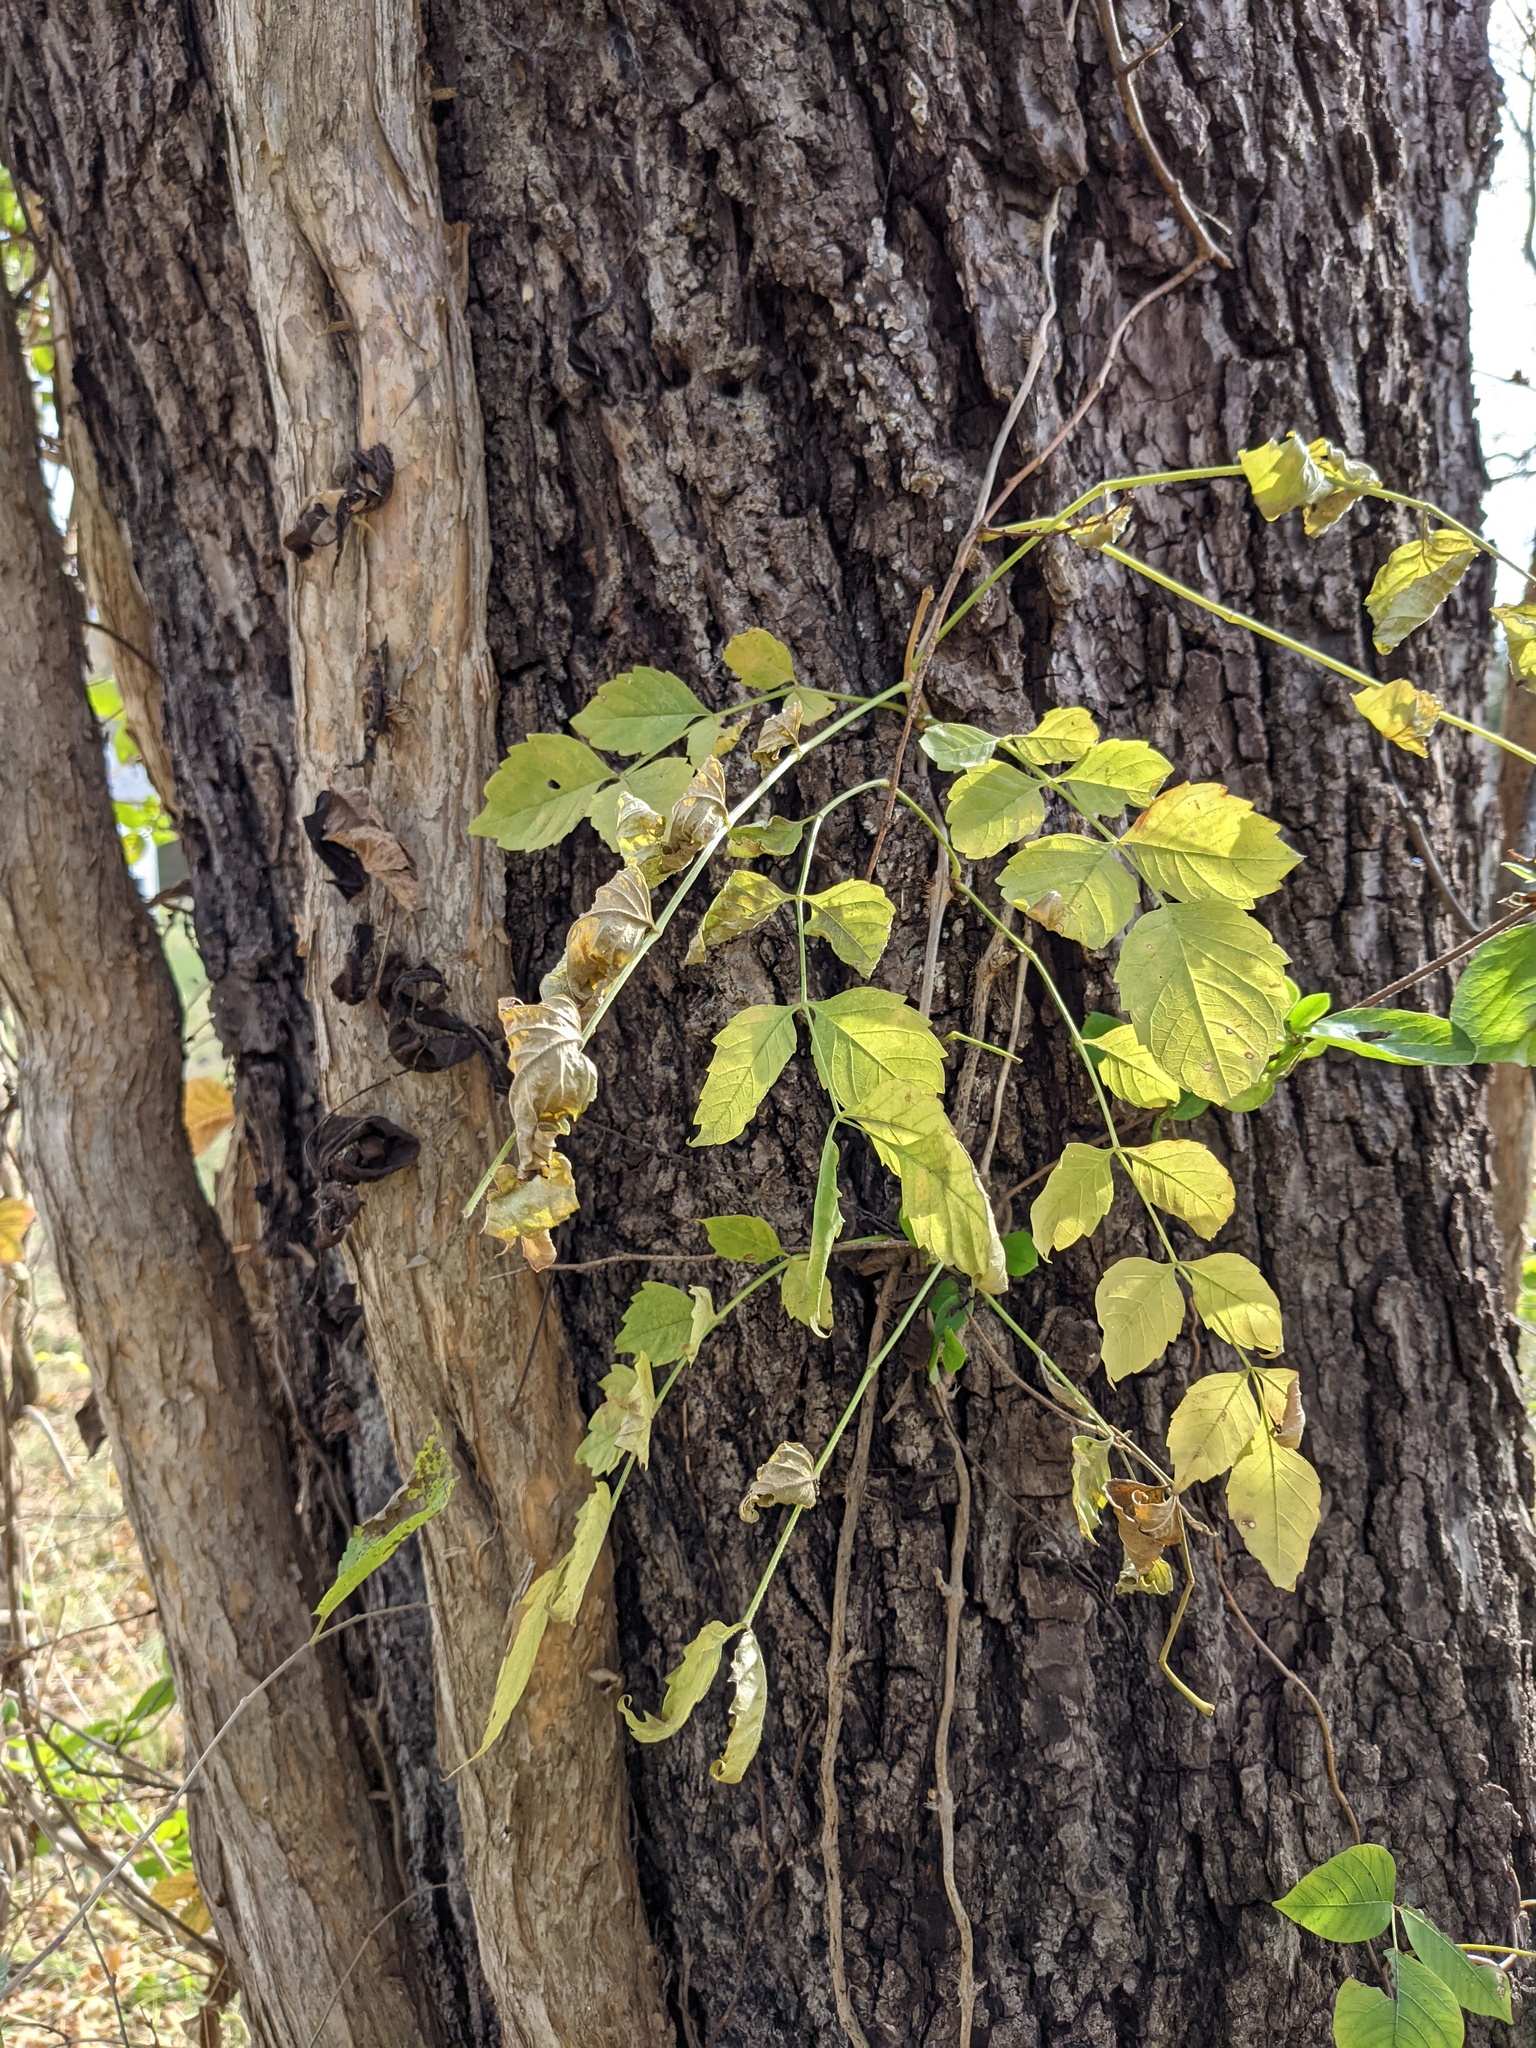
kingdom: Plantae
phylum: Tracheophyta
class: Magnoliopsida
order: Lamiales
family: Bignoniaceae
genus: Campsis
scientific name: Campsis radicans
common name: Trumpet-creeper
